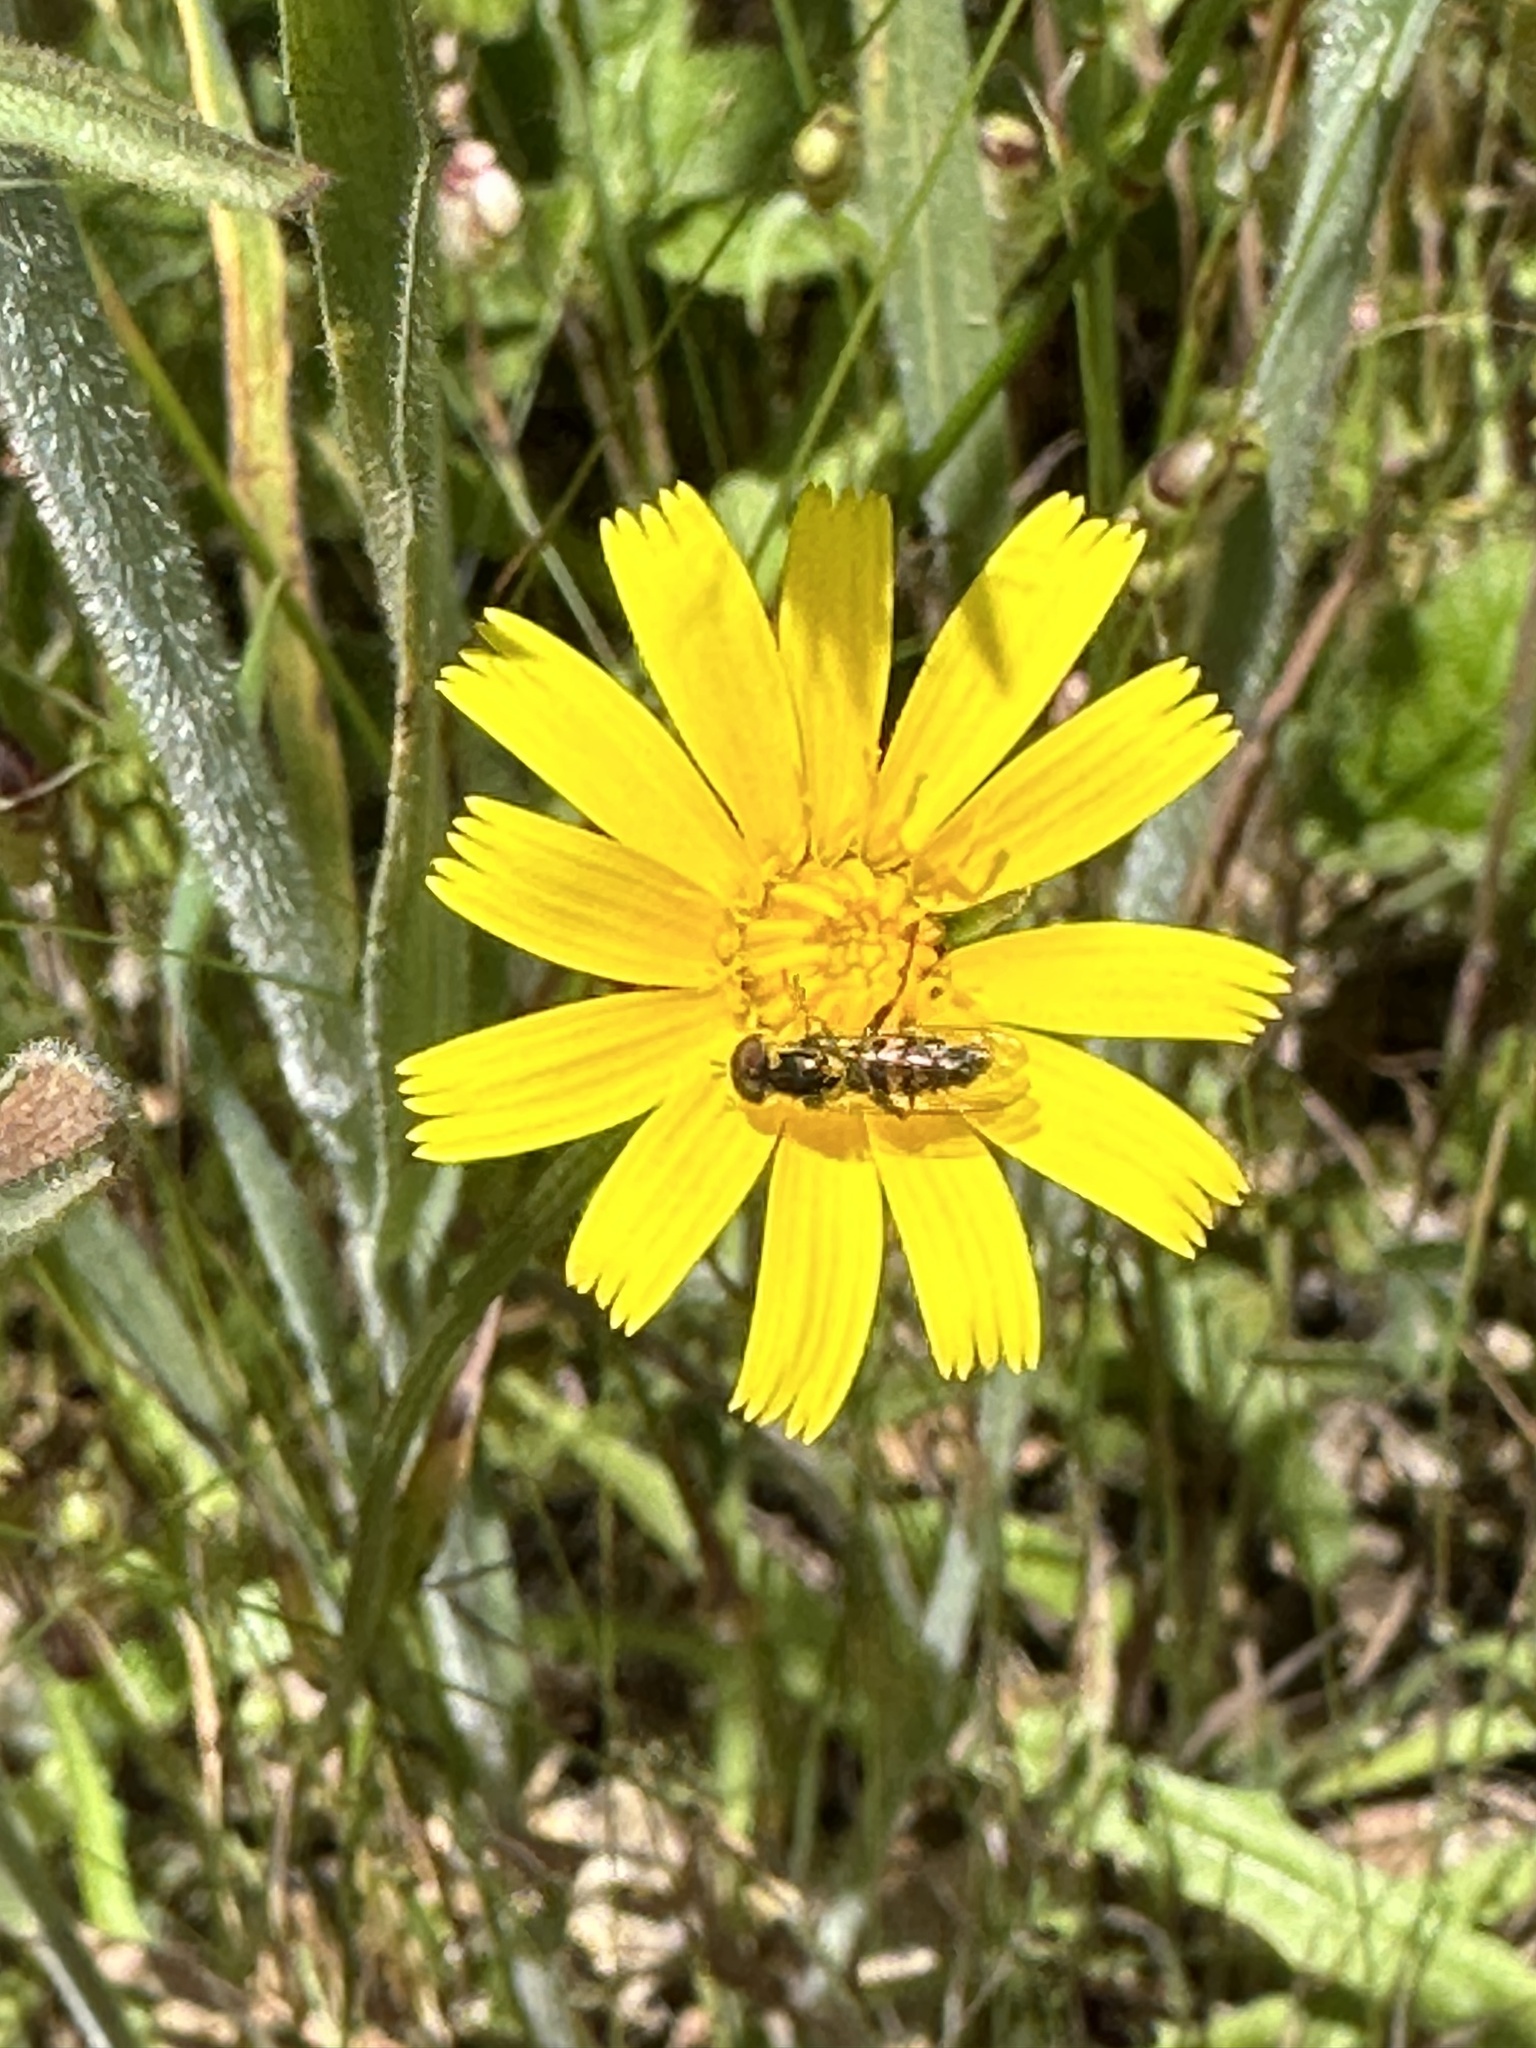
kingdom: Animalia
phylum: Arthropoda
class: Insecta
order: Diptera
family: Syrphidae
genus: Toxomerus
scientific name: Toxomerus occidentalis
